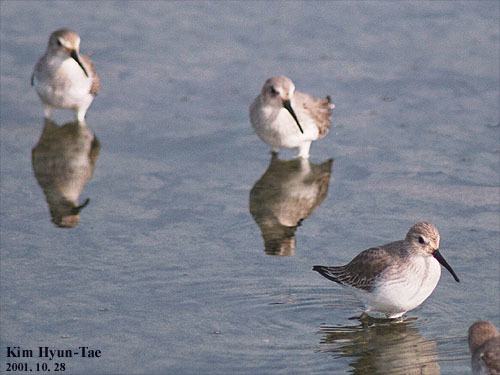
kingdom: Animalia
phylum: Chordata
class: Aves
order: Charadriiformes
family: Scolopacidae
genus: Calidris
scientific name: Calidris alpina
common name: Dunlin
